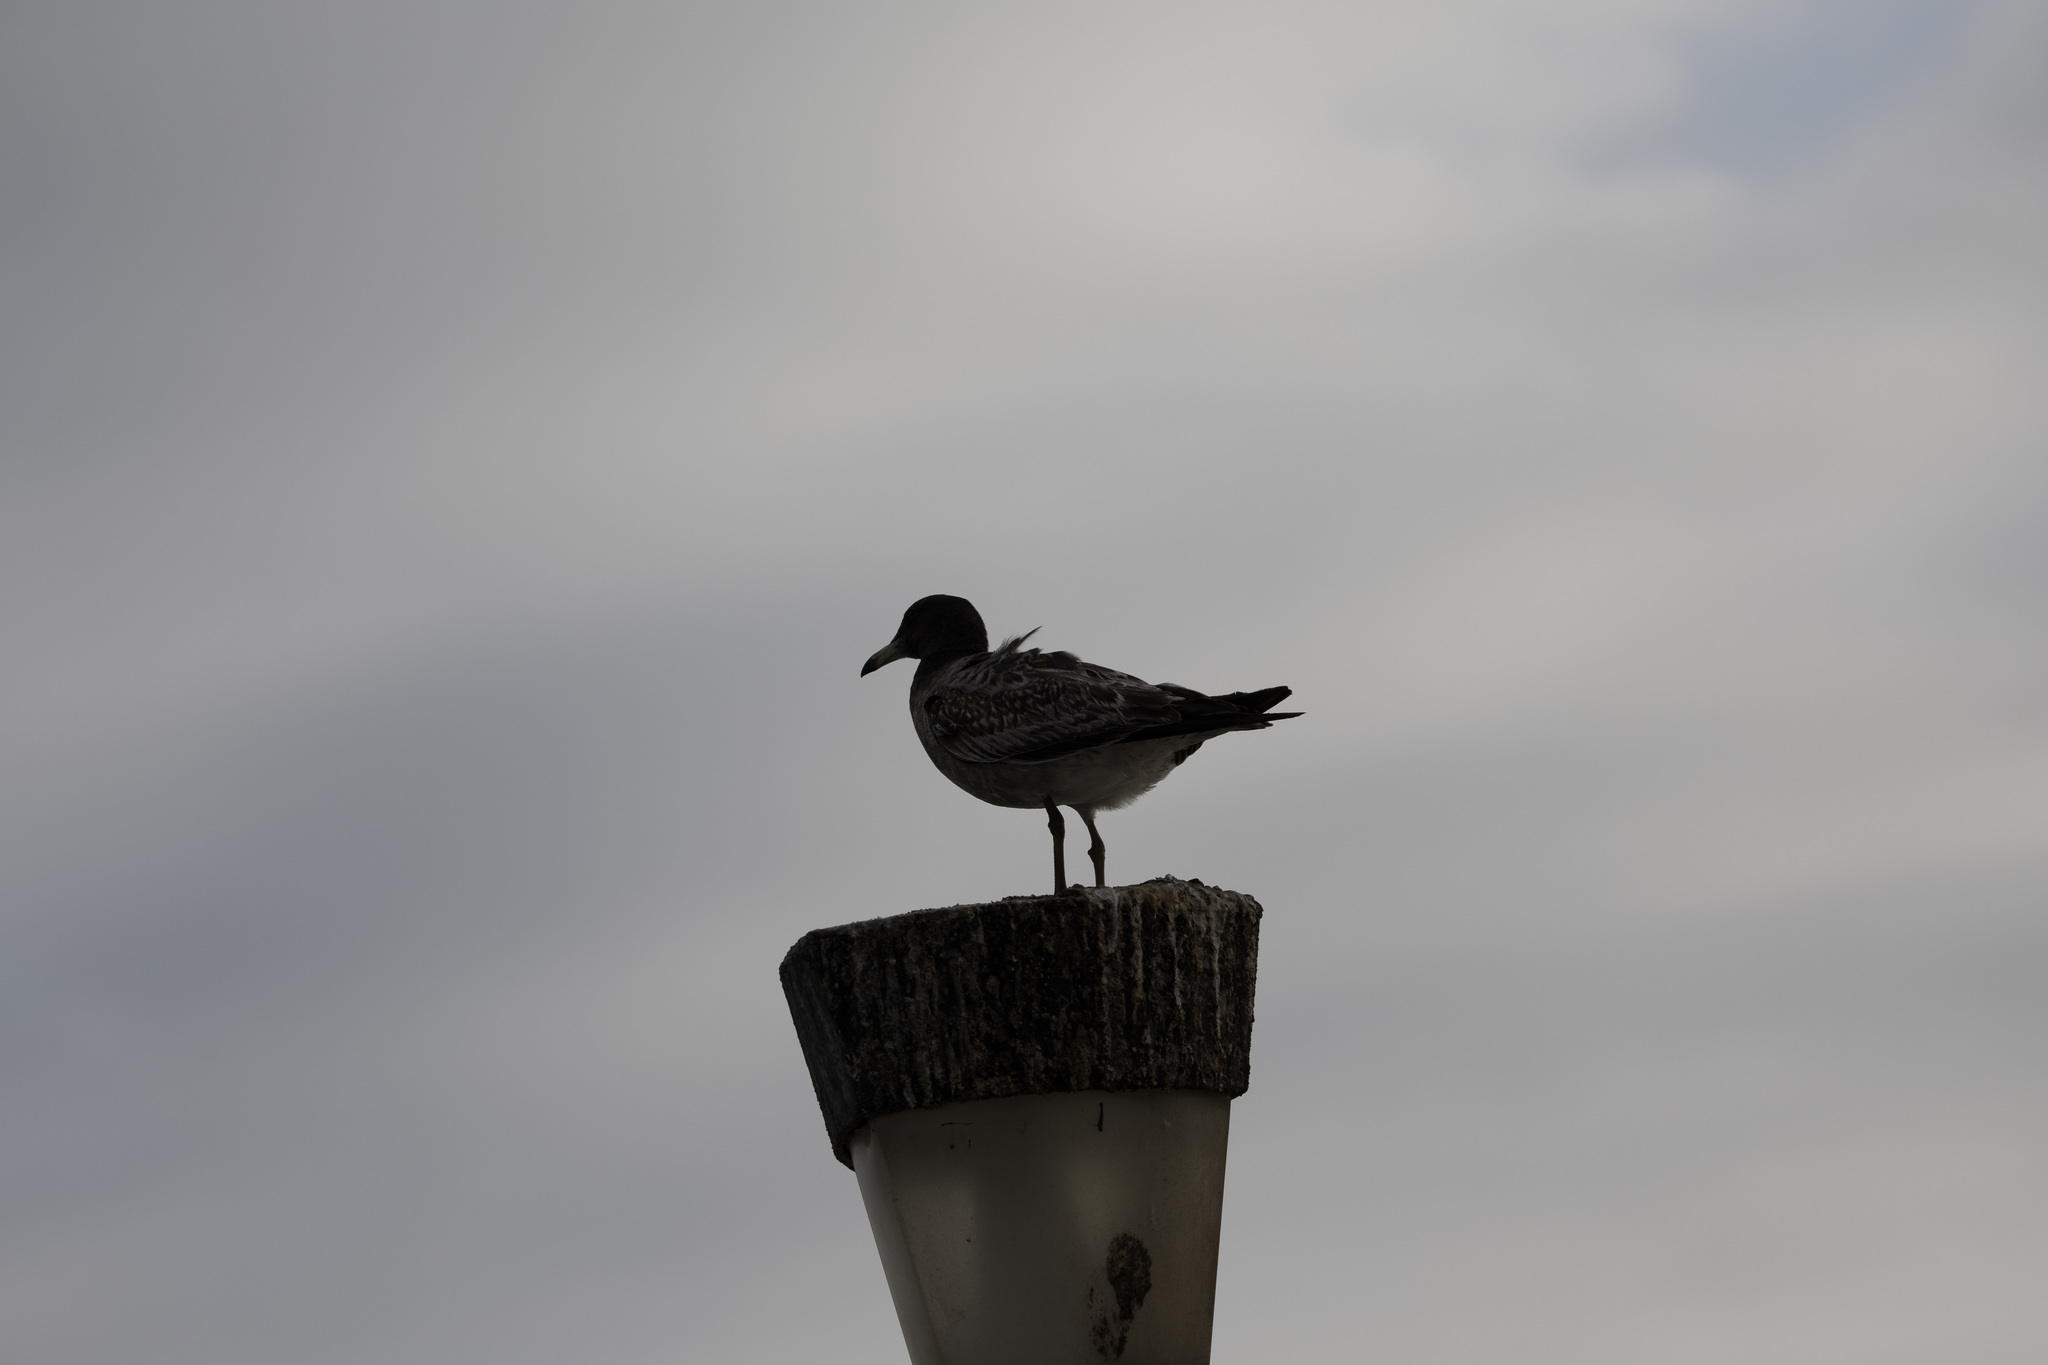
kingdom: Animalia
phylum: Chordata
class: Aves
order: Charadriiformes
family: Laridae
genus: Larus
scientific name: Larus belcheri
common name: Belcher's gull
